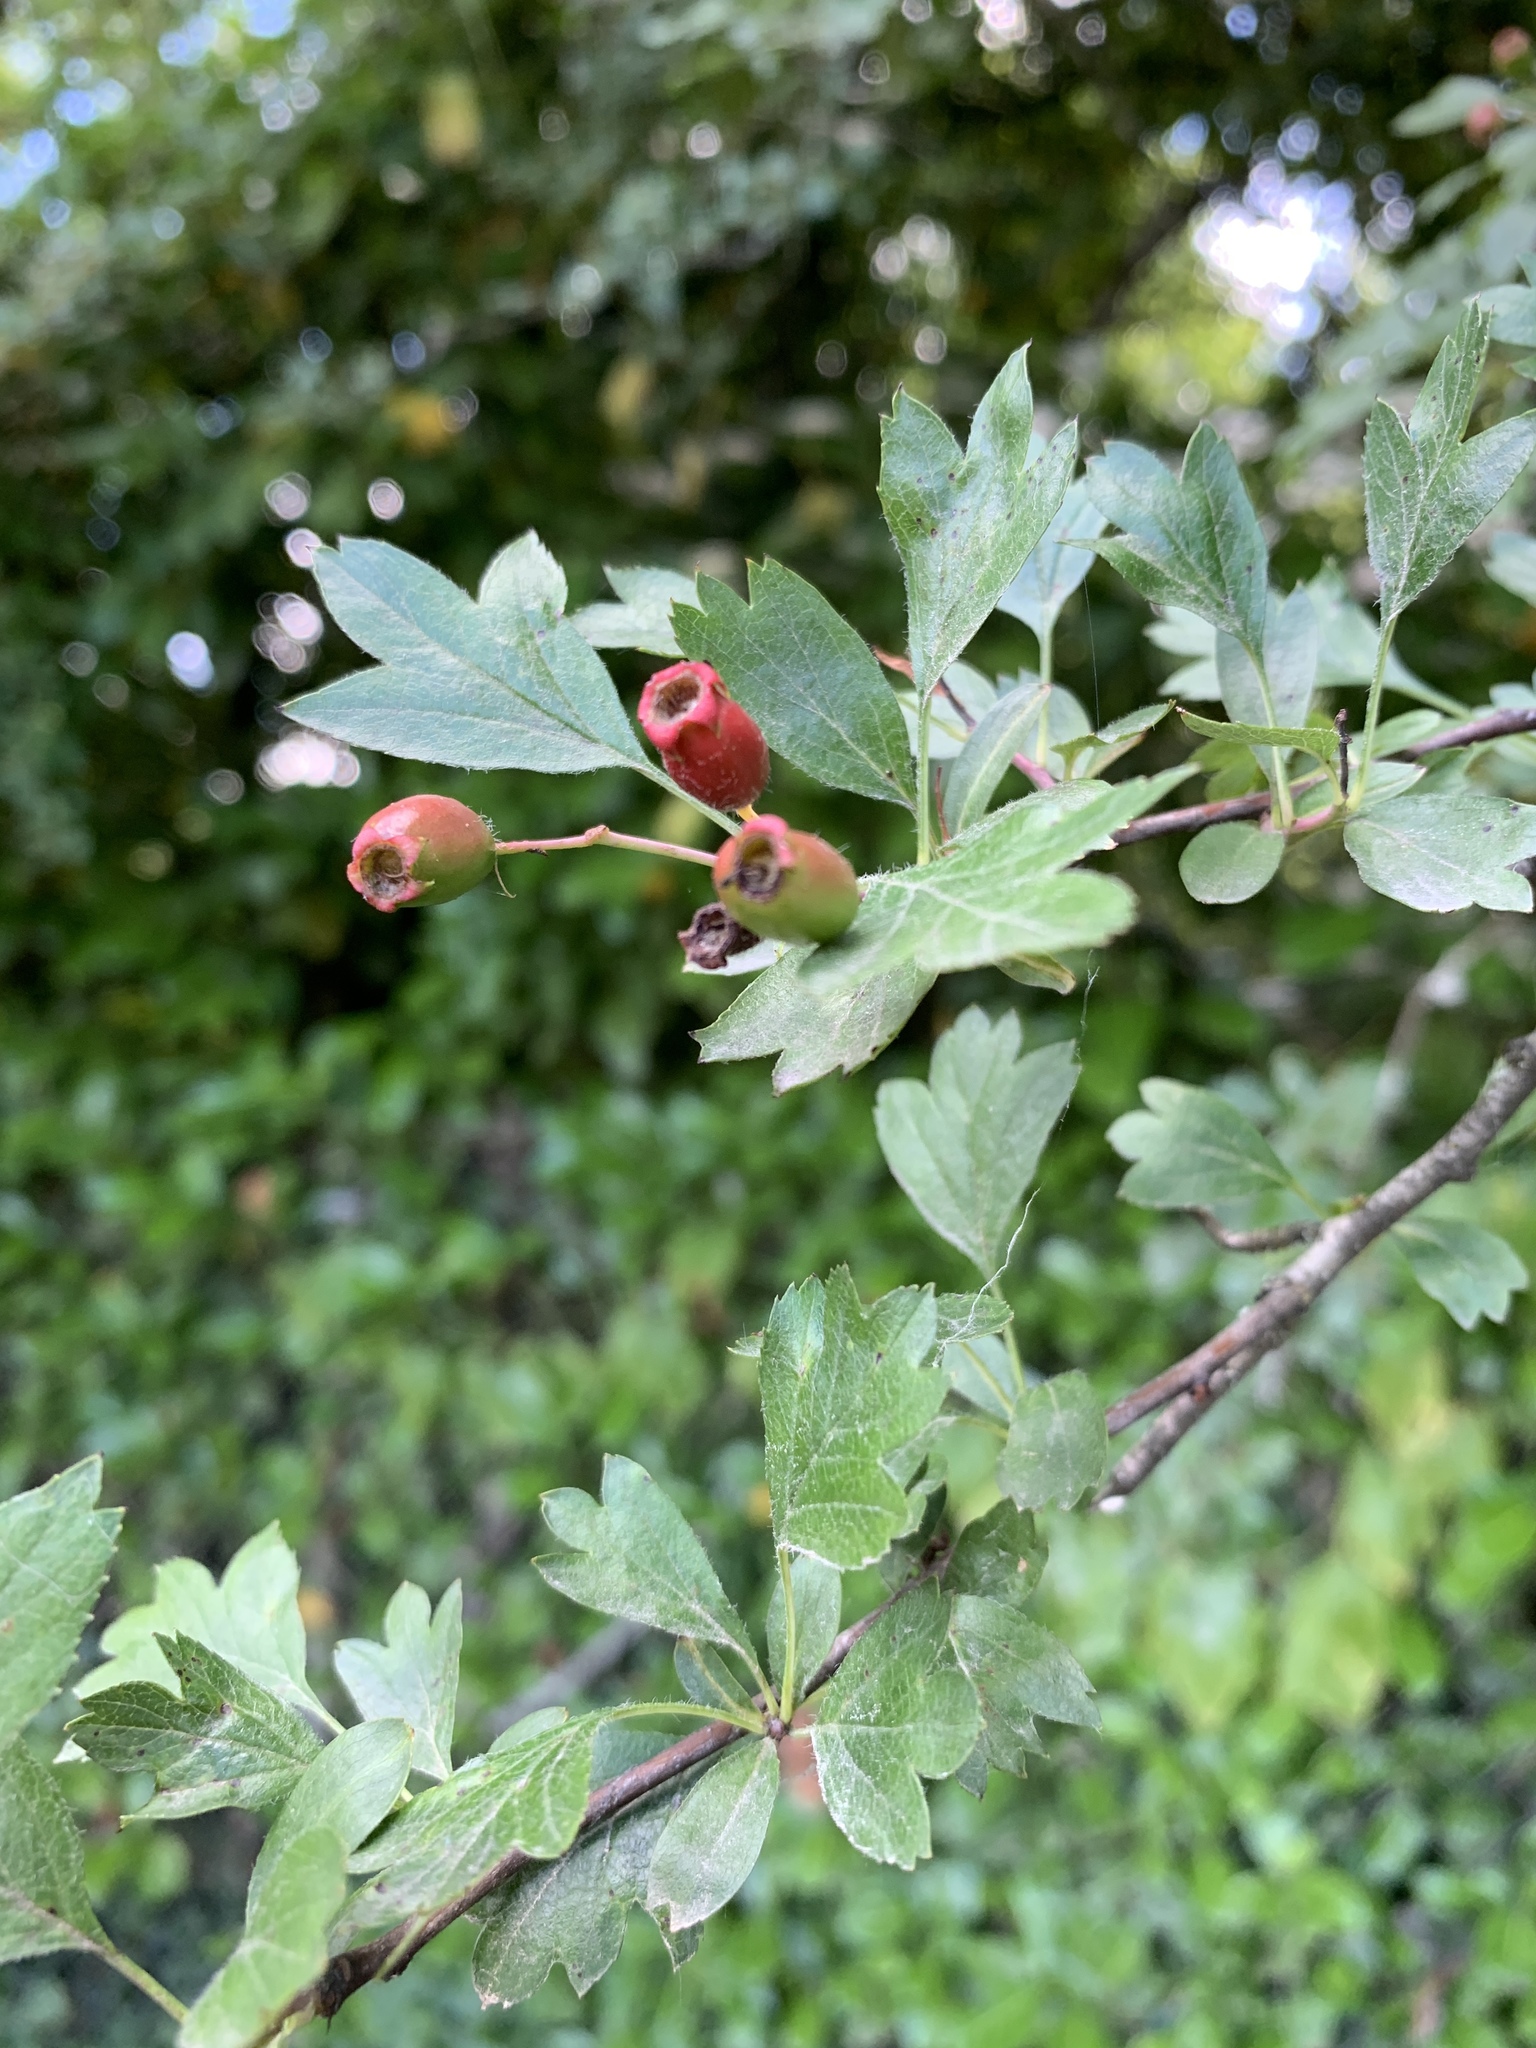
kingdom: Plantae
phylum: Tracheophyta
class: Magnoliopsida
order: Rosales
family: Rosaceae
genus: Crataegus
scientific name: Crataegus monogyna
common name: Hawthorn
